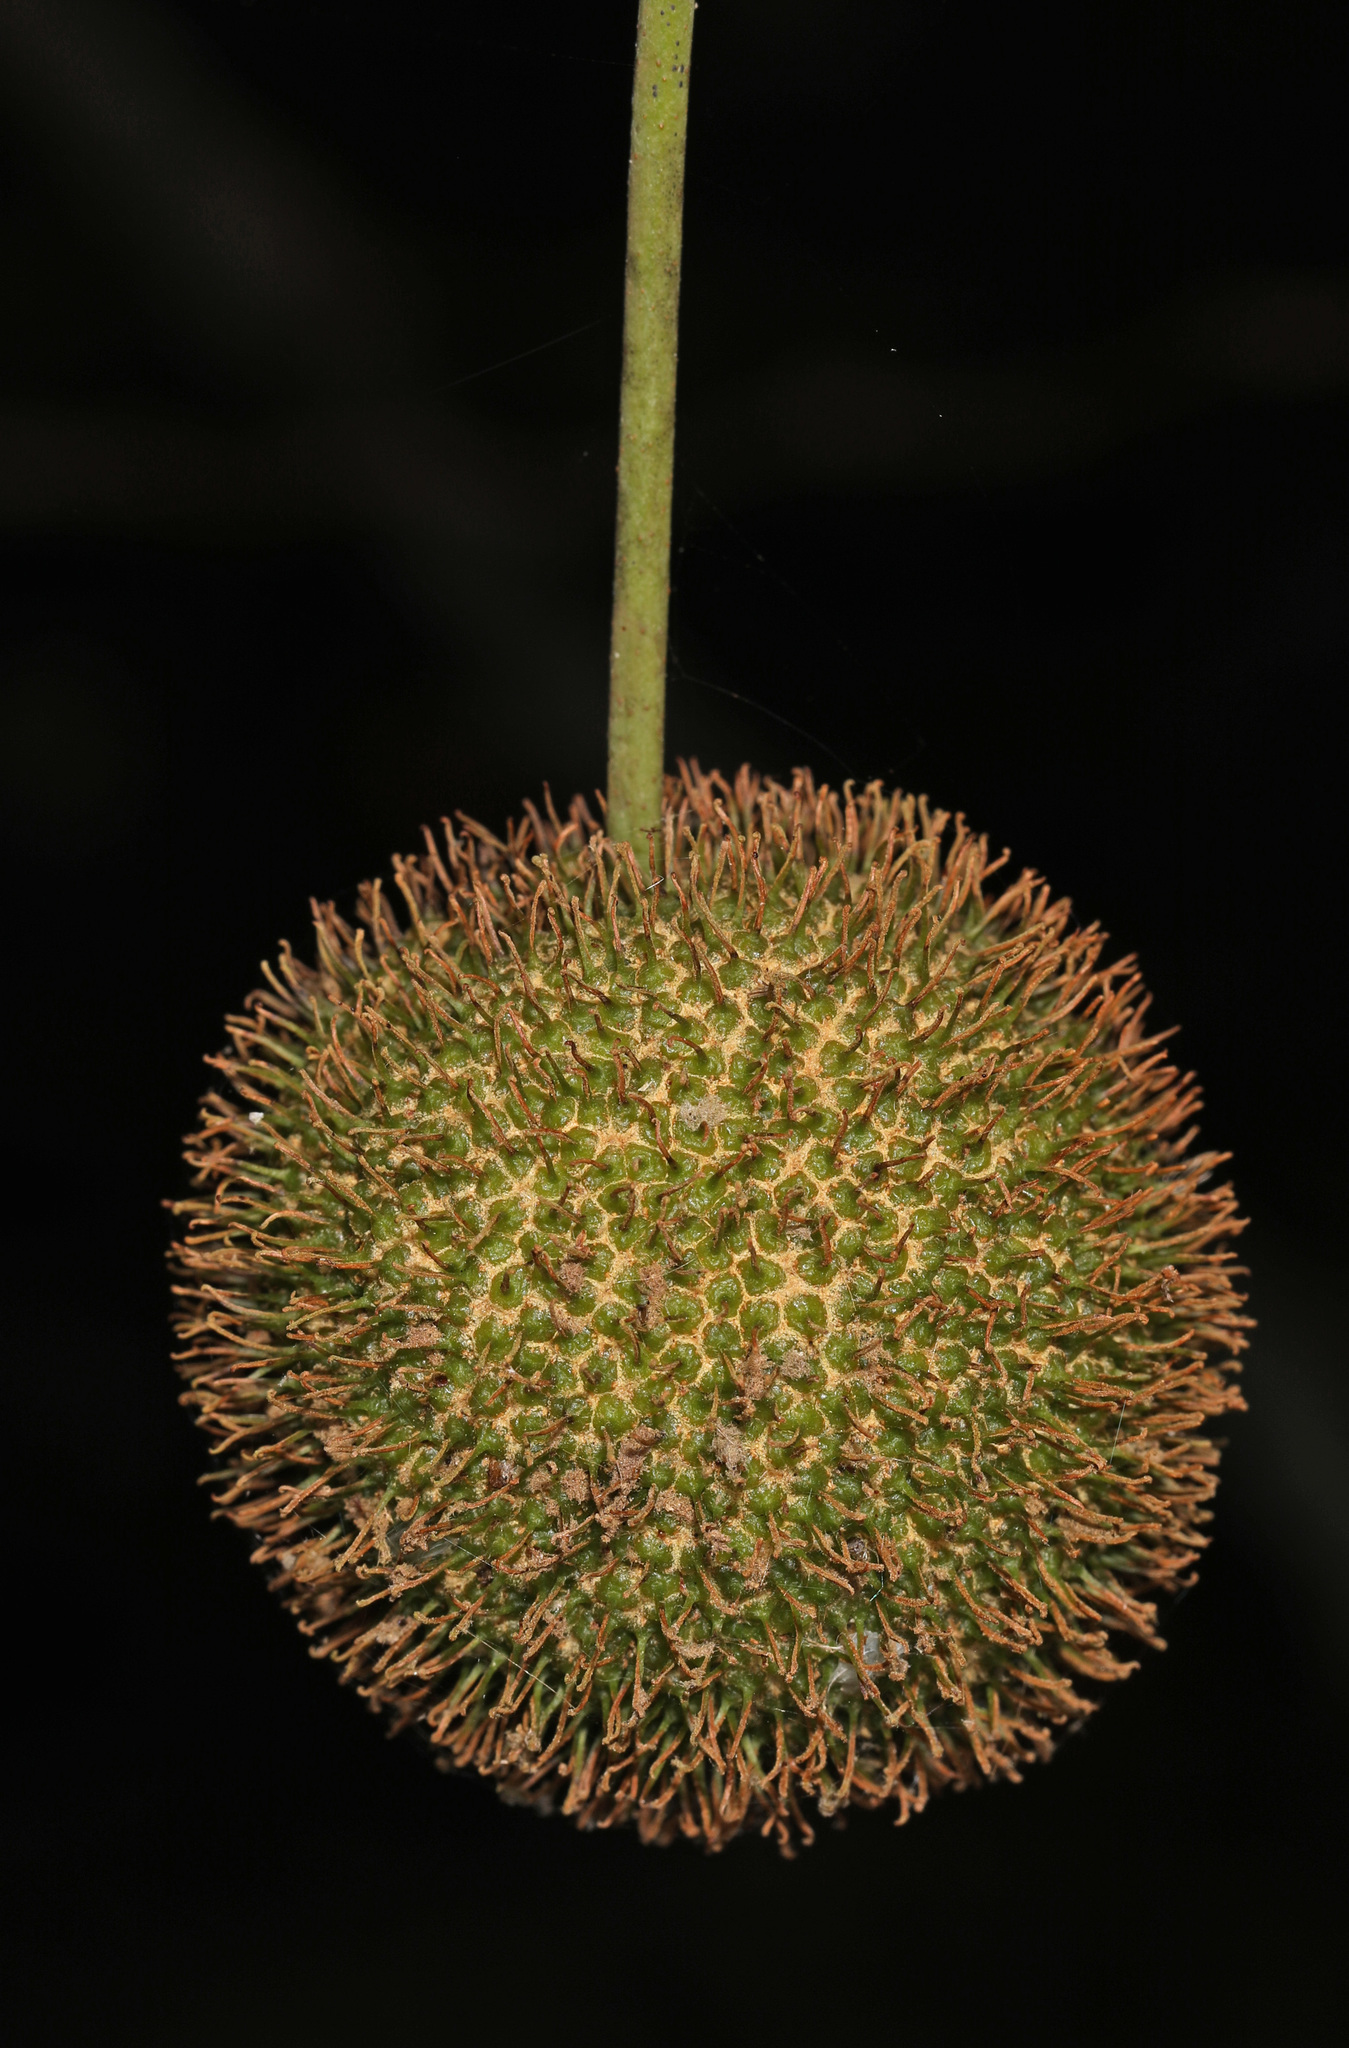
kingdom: Plantae
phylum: Tracheophyta
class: Magnoliopsida
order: Proteales
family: Platanaceae
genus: Platanus
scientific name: Platanus occidentalis
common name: American sycamore
